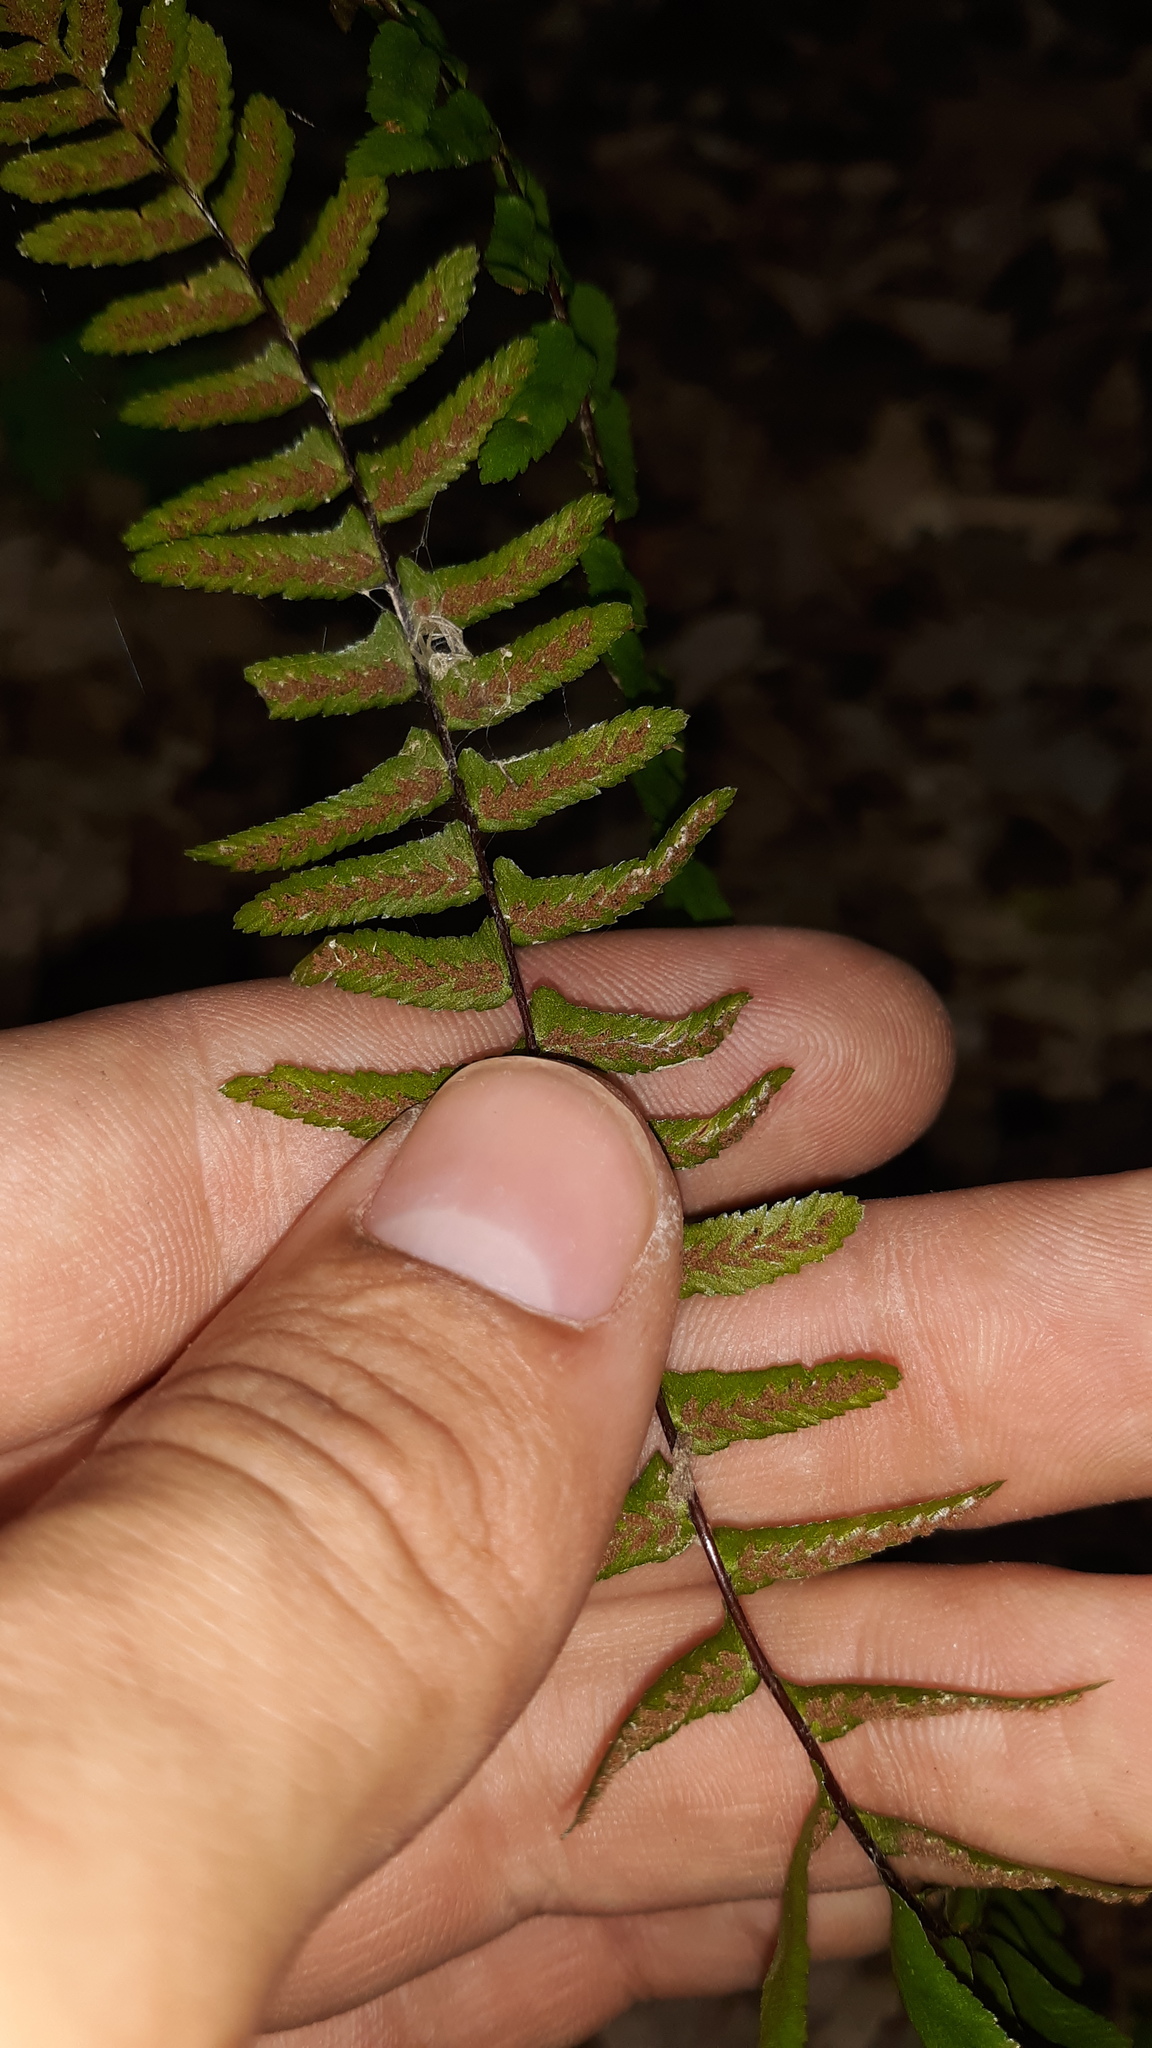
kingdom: Plantae
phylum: Tracheophyta
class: Polypodiopsida
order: Polypodiales
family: Aspleniaceae
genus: Asplenium
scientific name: Asplenium platyneuron
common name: Ebony spleenwort
